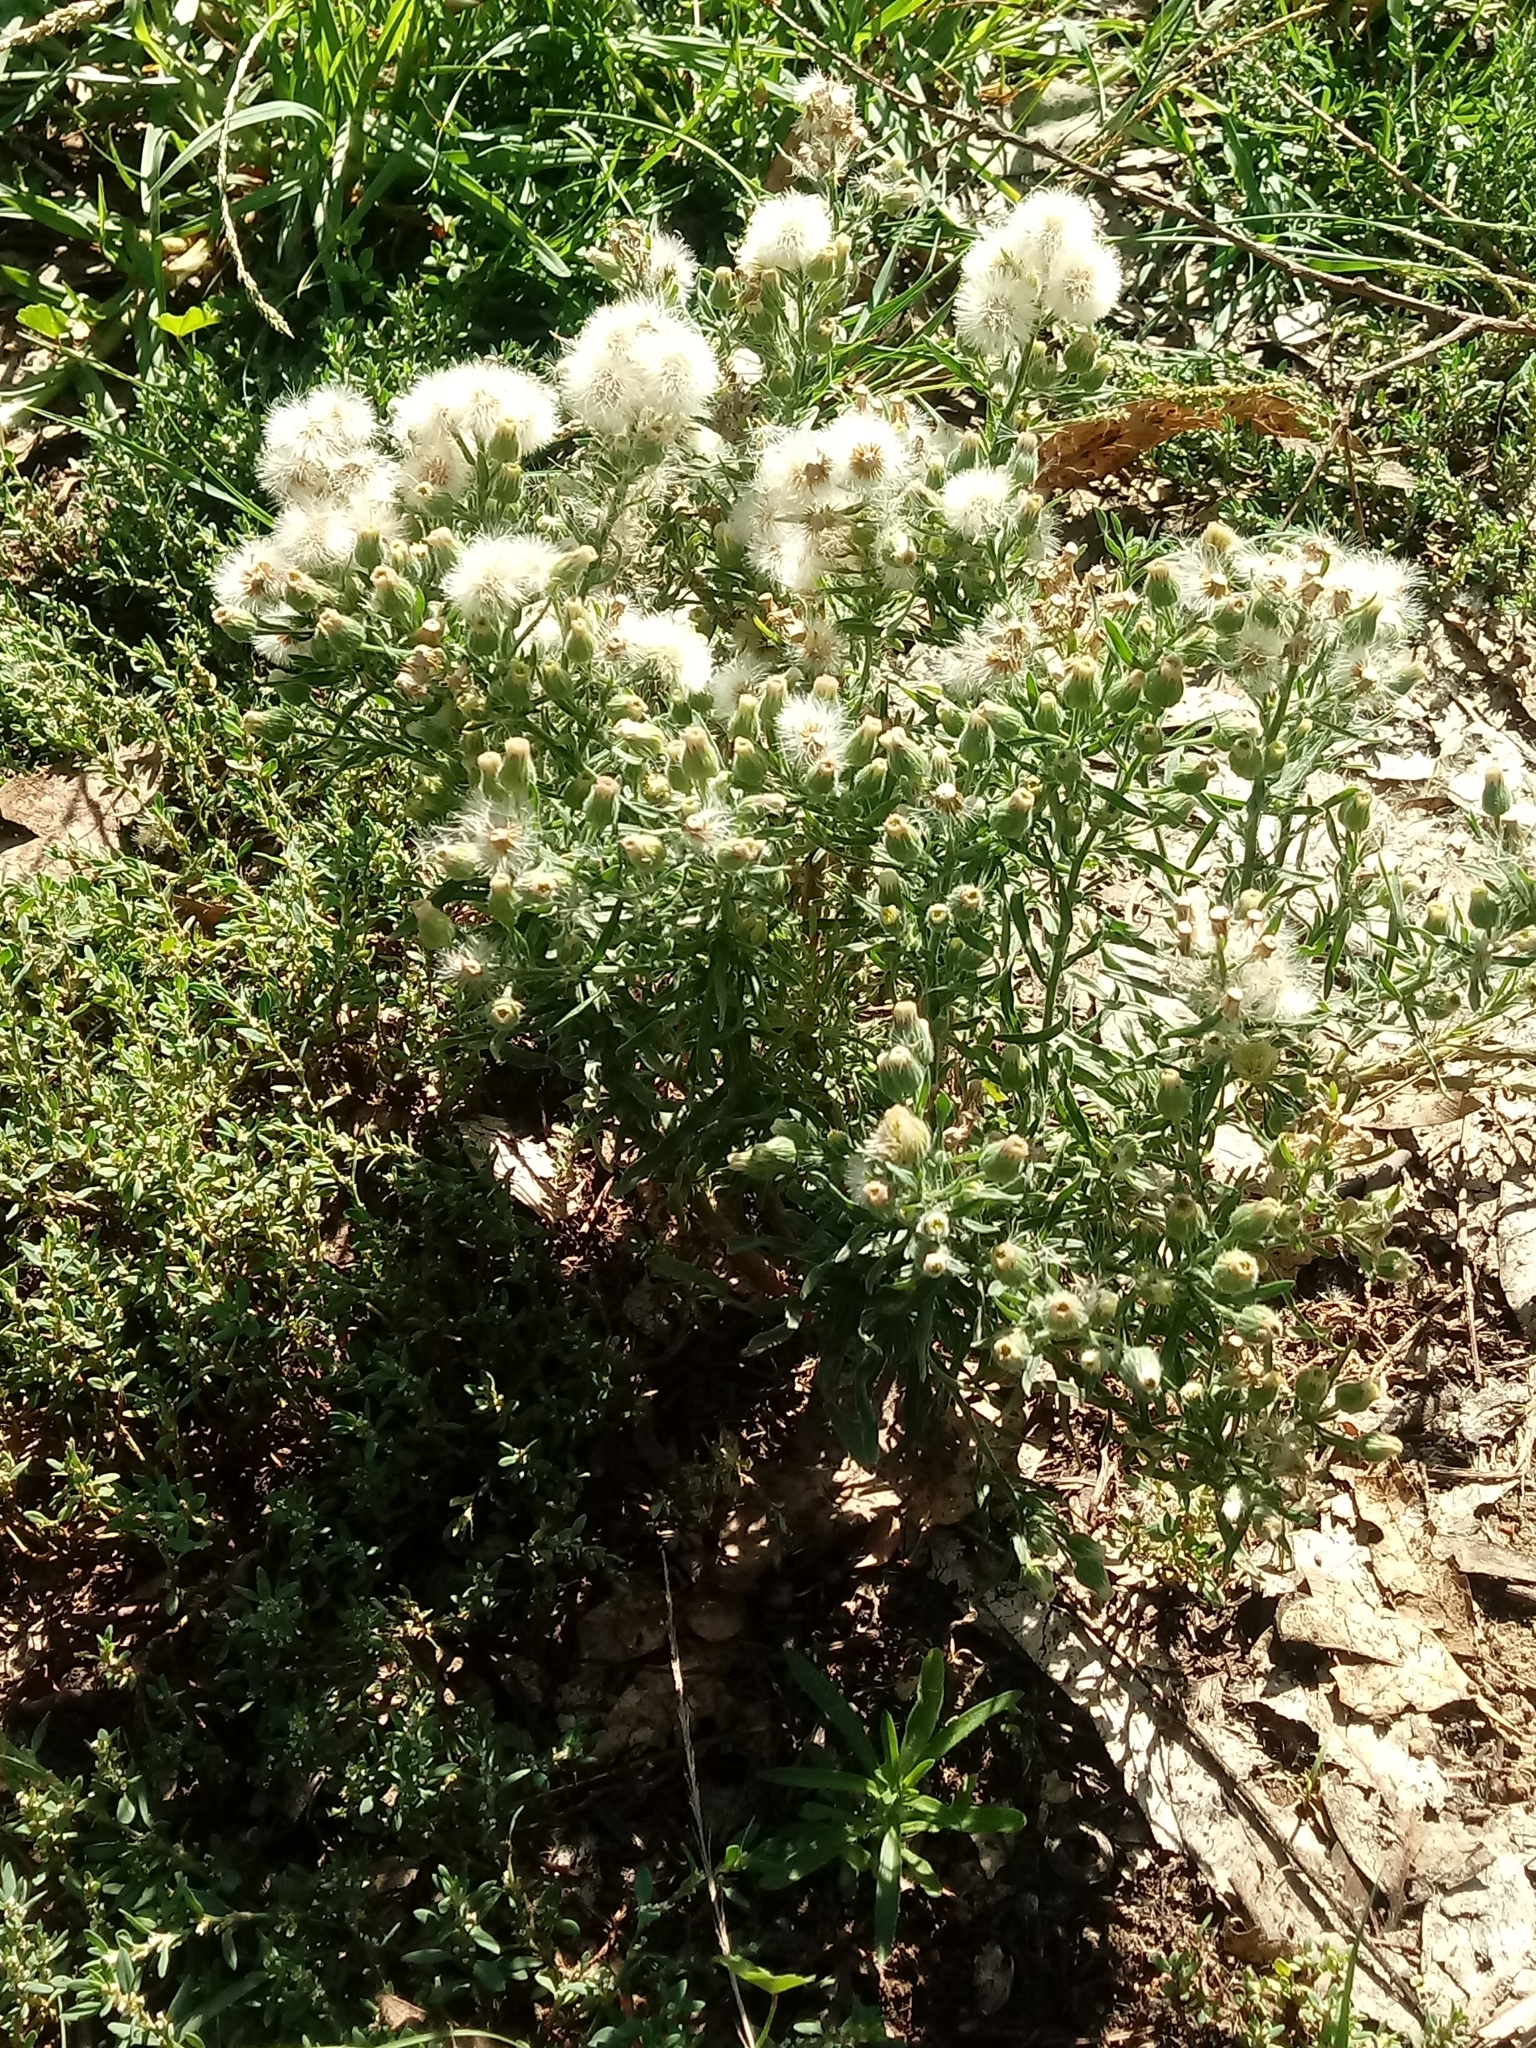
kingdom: Plantae
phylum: Tracheophyta
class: Magnoliopsida
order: Asterales
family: Asteraceae
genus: Erigeron
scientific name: Erigeron bonariensis
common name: Argentine fleabane
